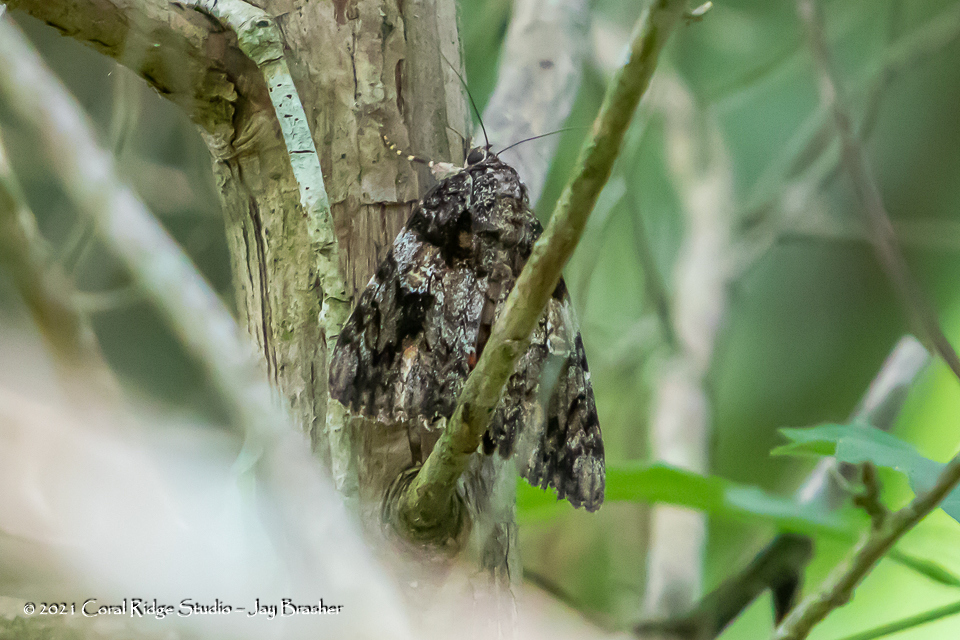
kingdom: Animalia
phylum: Arthropoda
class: Insecta
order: Lepidoptera
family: Erebidae
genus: Catocala
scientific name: Catocala ilia
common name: Ilia underwing
